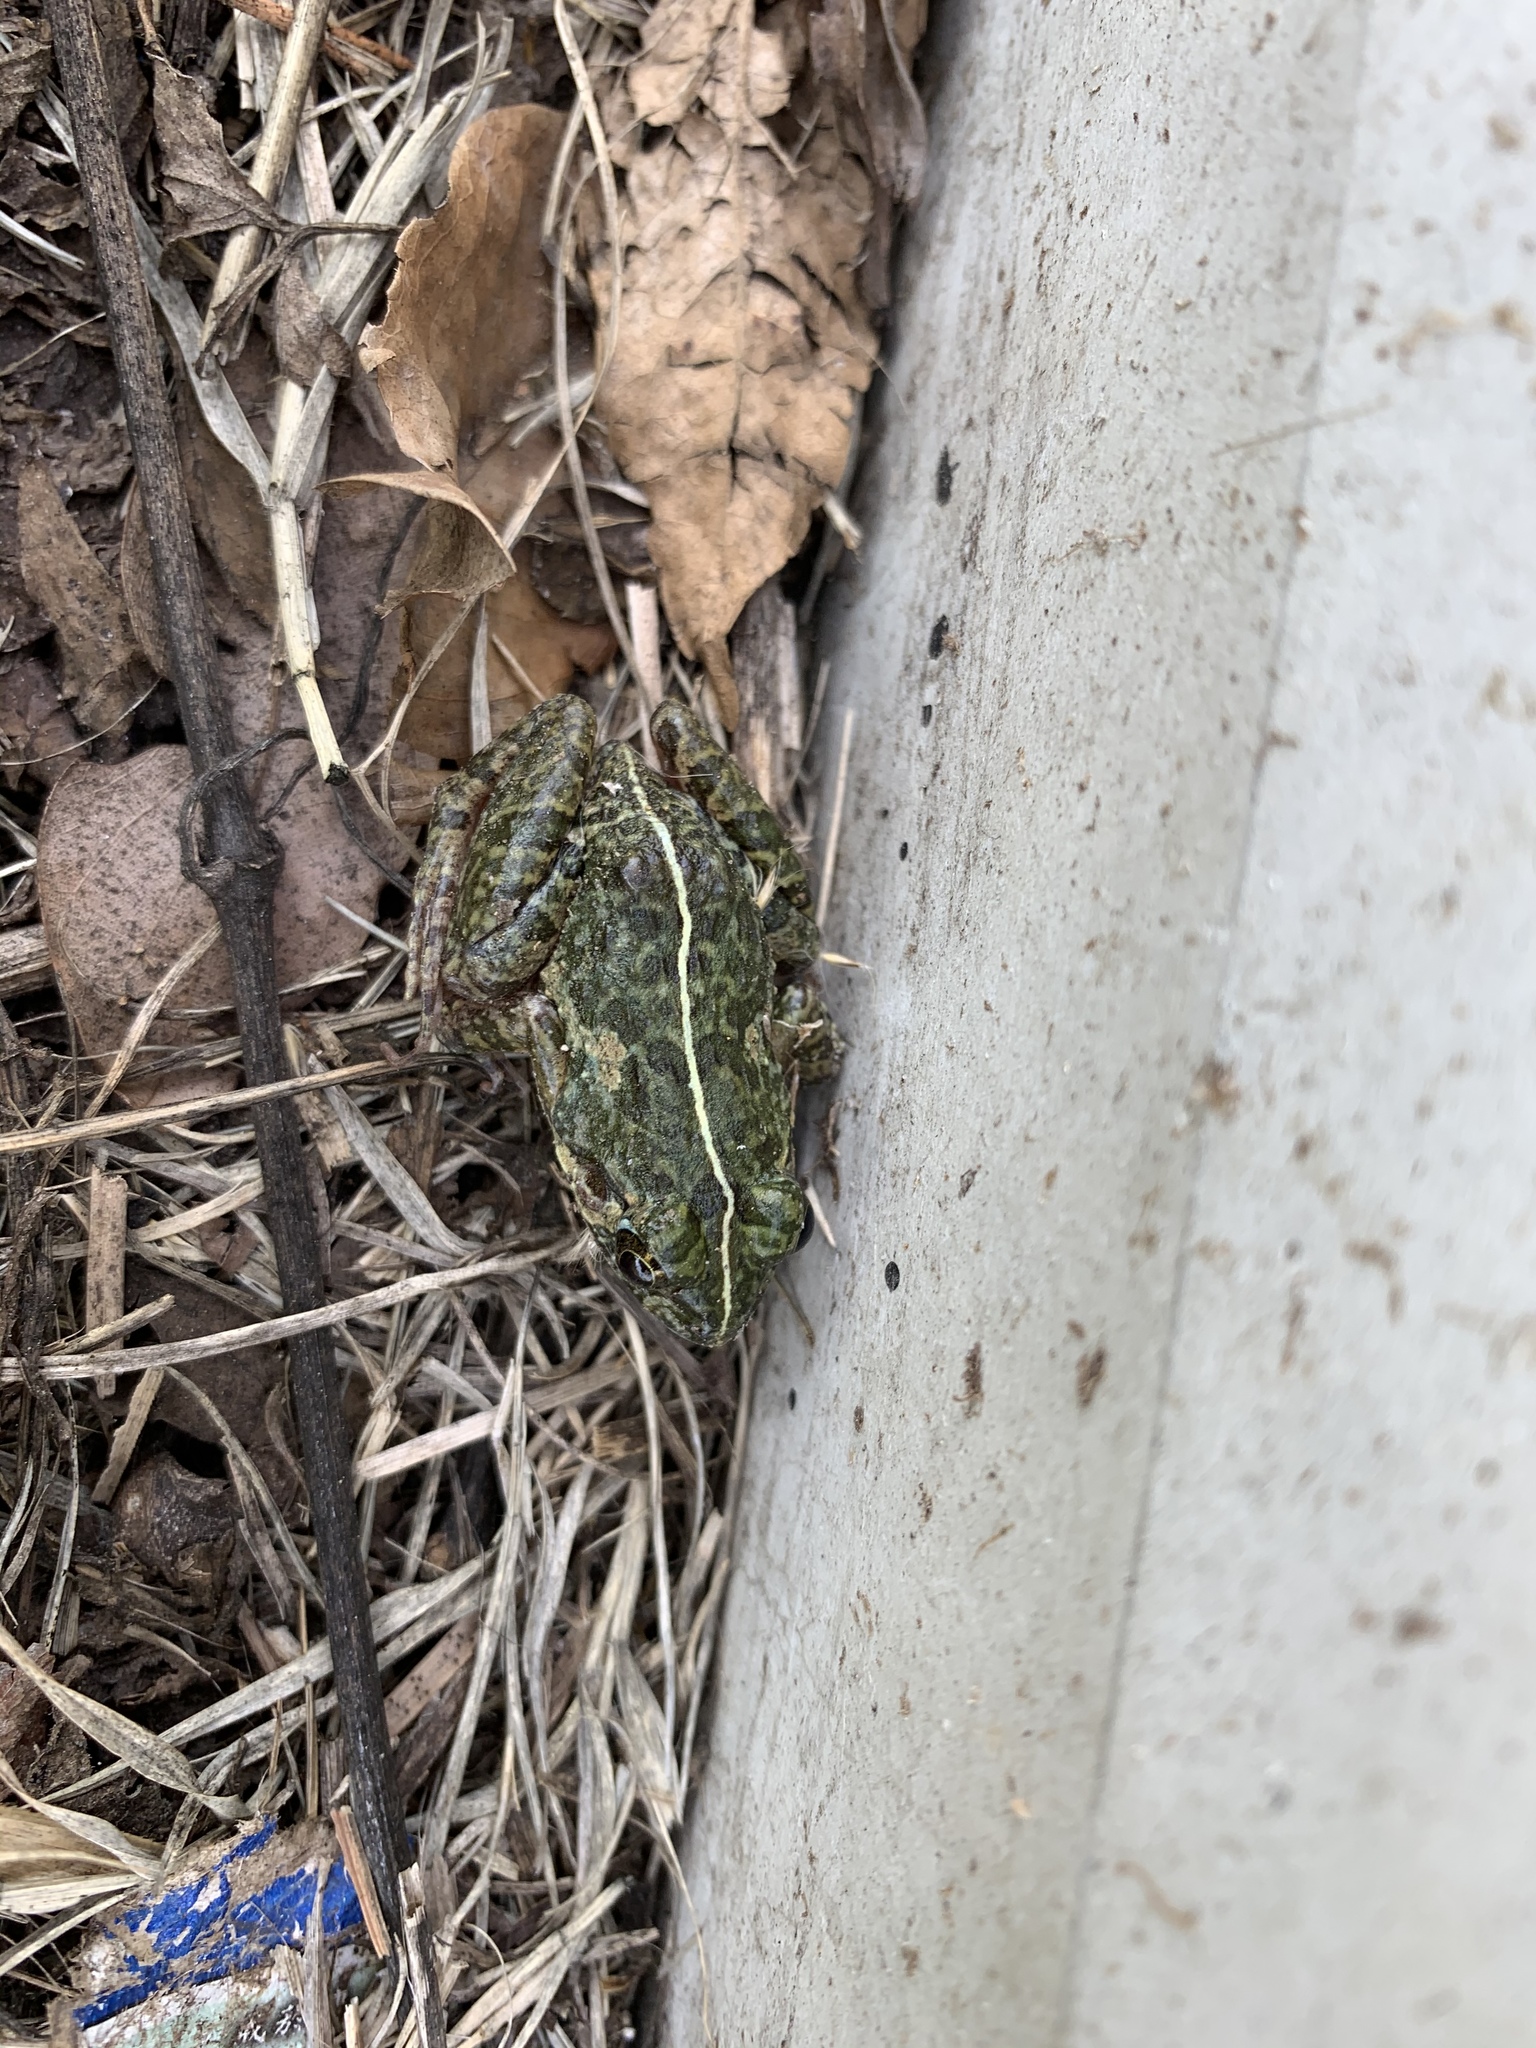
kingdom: Animalia
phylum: Chordata
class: Amphibia
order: Anura
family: Dicroglossidae
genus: Fejervarya
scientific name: Fejervarya limnocharis
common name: Asian grass frog/common pond frog/field frog/grass frog/indian rice frog
